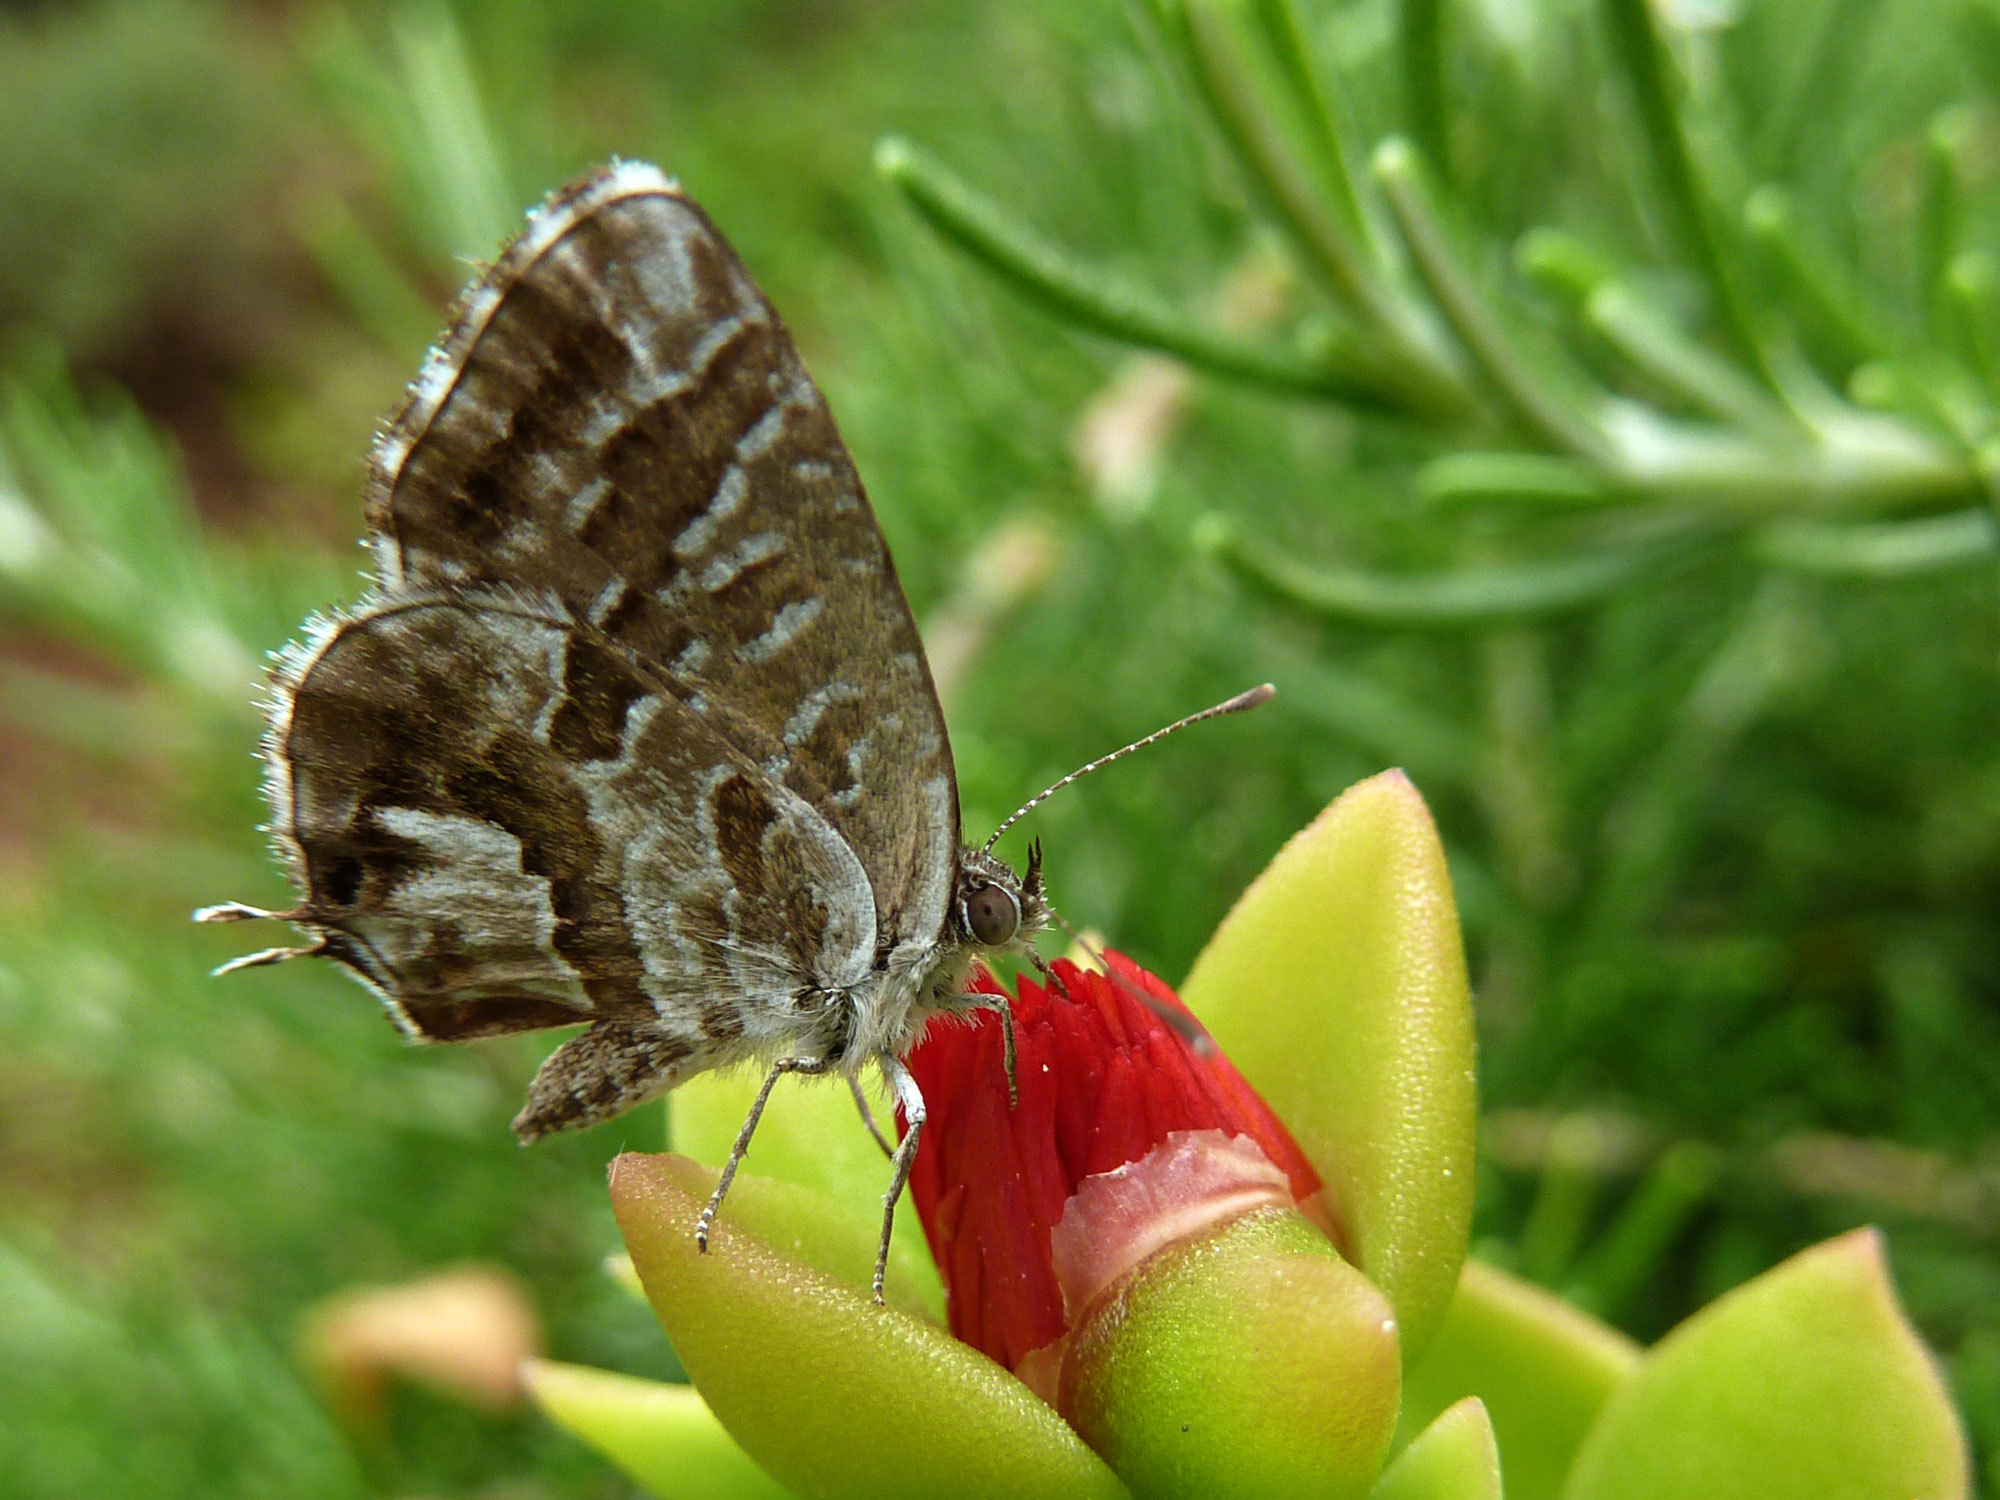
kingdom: Animalia
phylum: Arthropoda
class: Insecta
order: Lepidoptera
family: Lycaenidae
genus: Cacyreus
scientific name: Cacyreus marshalli
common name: Geranium bronze
